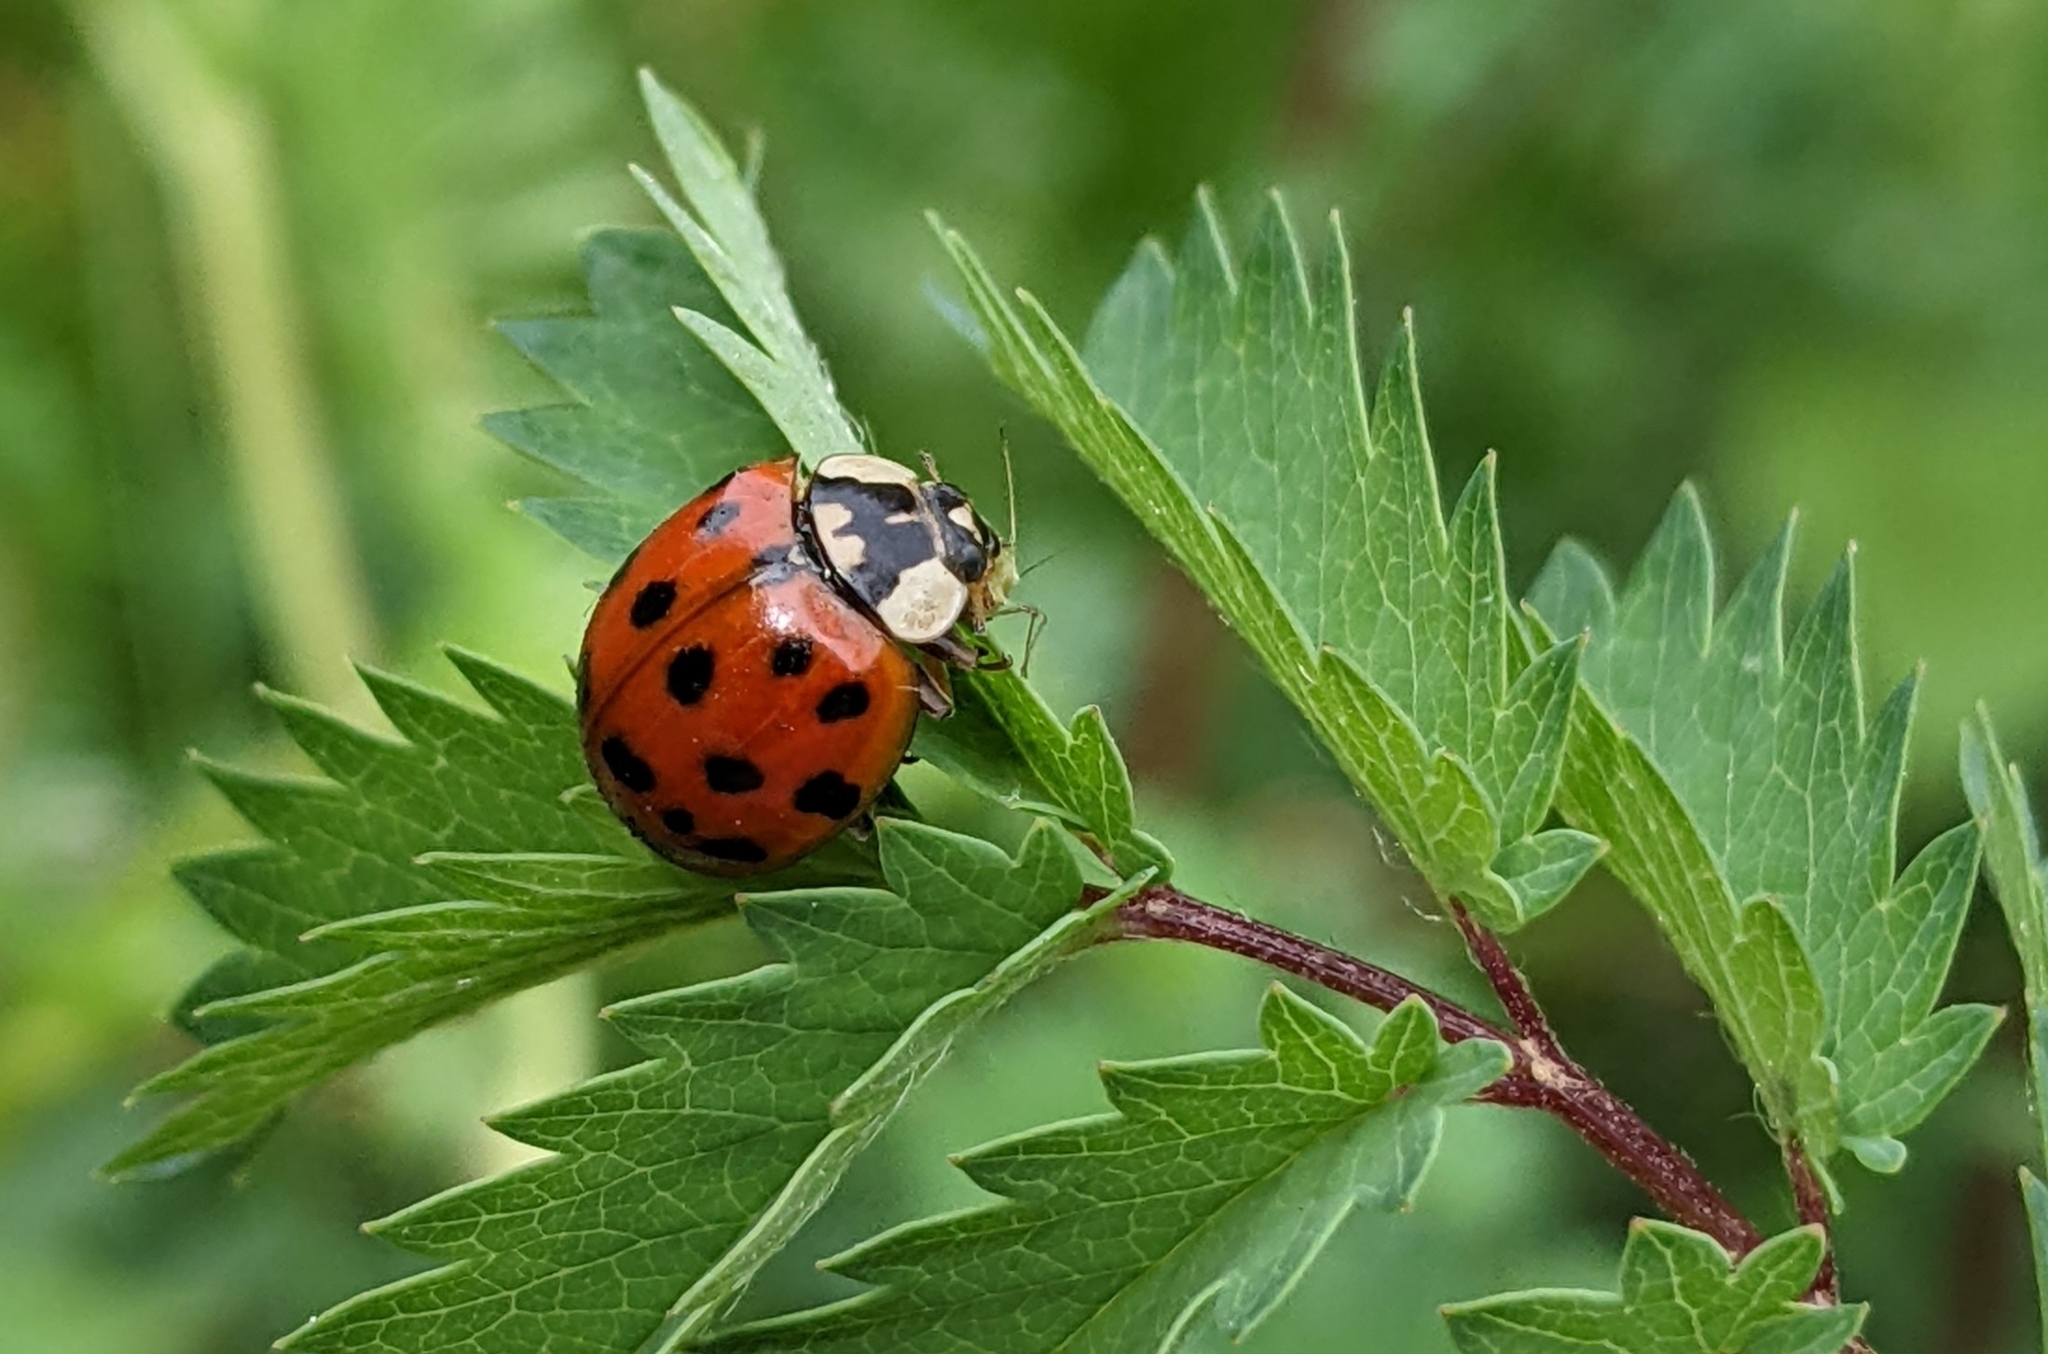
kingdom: Animalia
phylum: Arthropoda
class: Insecta
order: Coleoptera
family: Coccinellidae
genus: Harmonia
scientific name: Harmonia axyridis
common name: Harlequin ladybird
